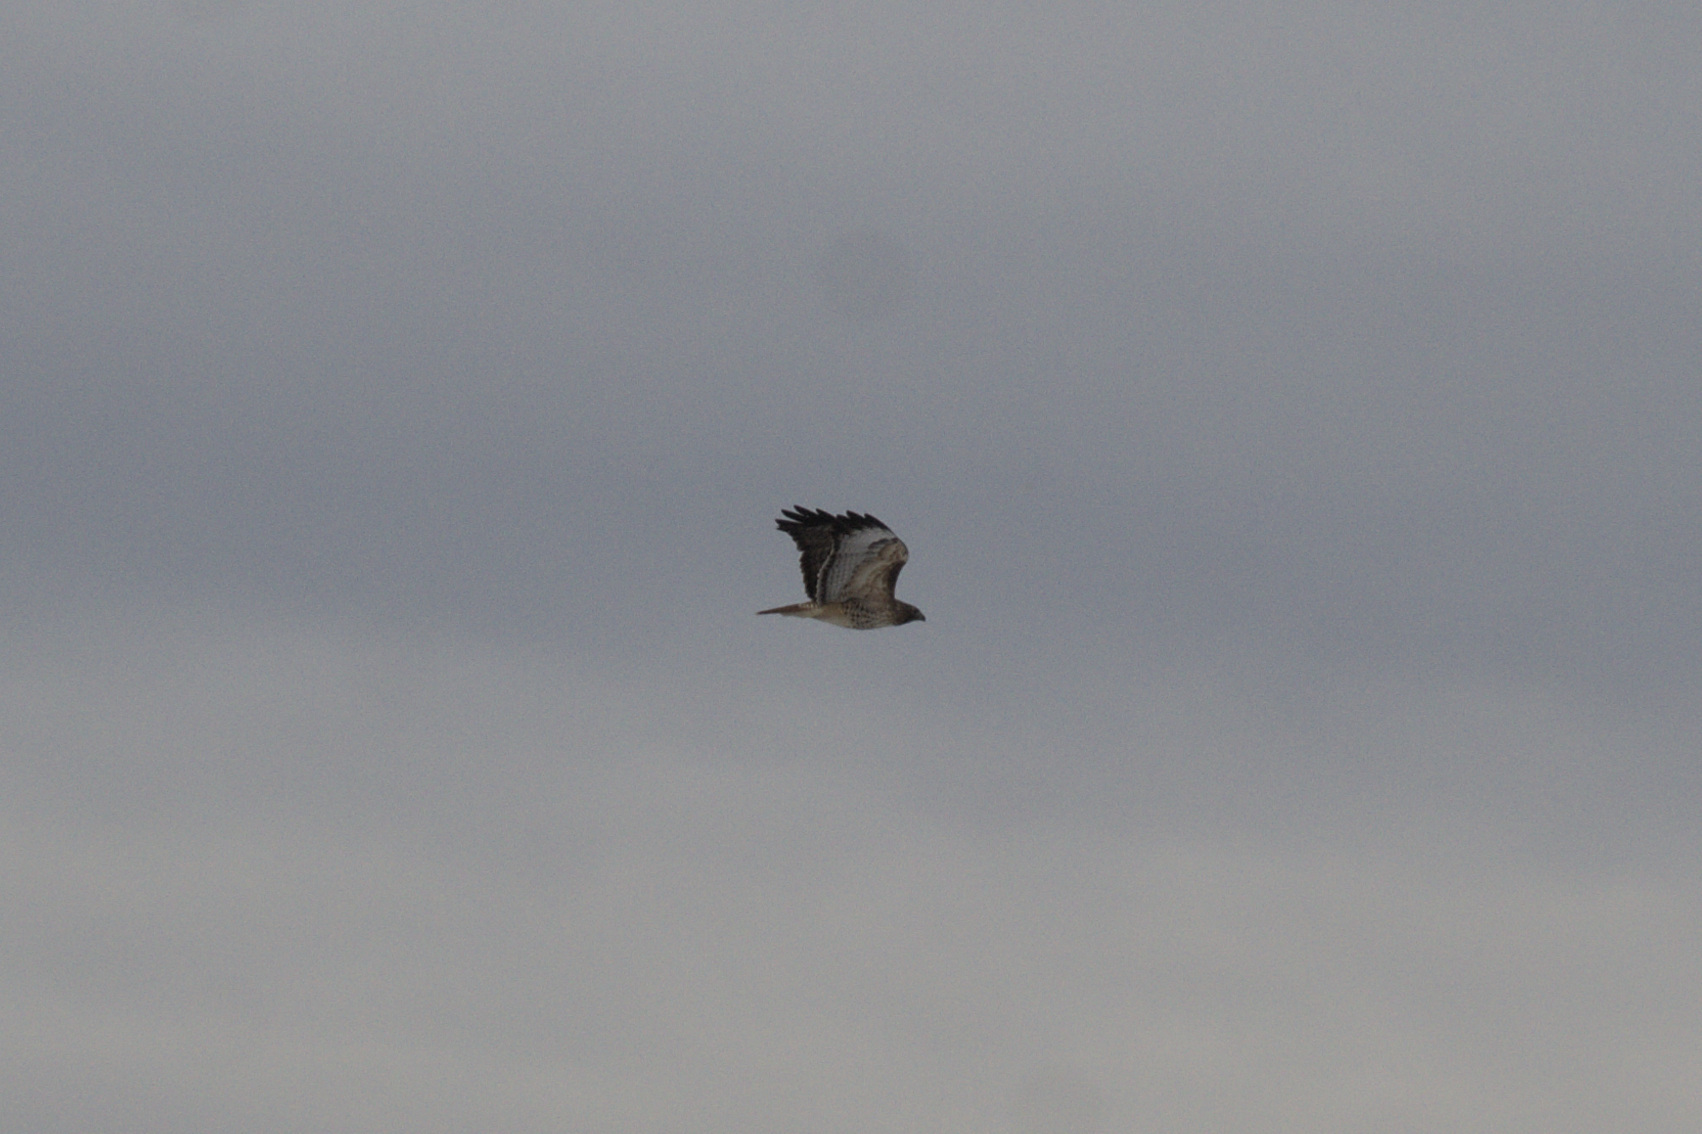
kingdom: Animalia
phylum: Chordata
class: Aves
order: Accipitriformes
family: Accipitridae
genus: Buteo
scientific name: Buteo jamaicensis
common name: Red-tailed hawk
